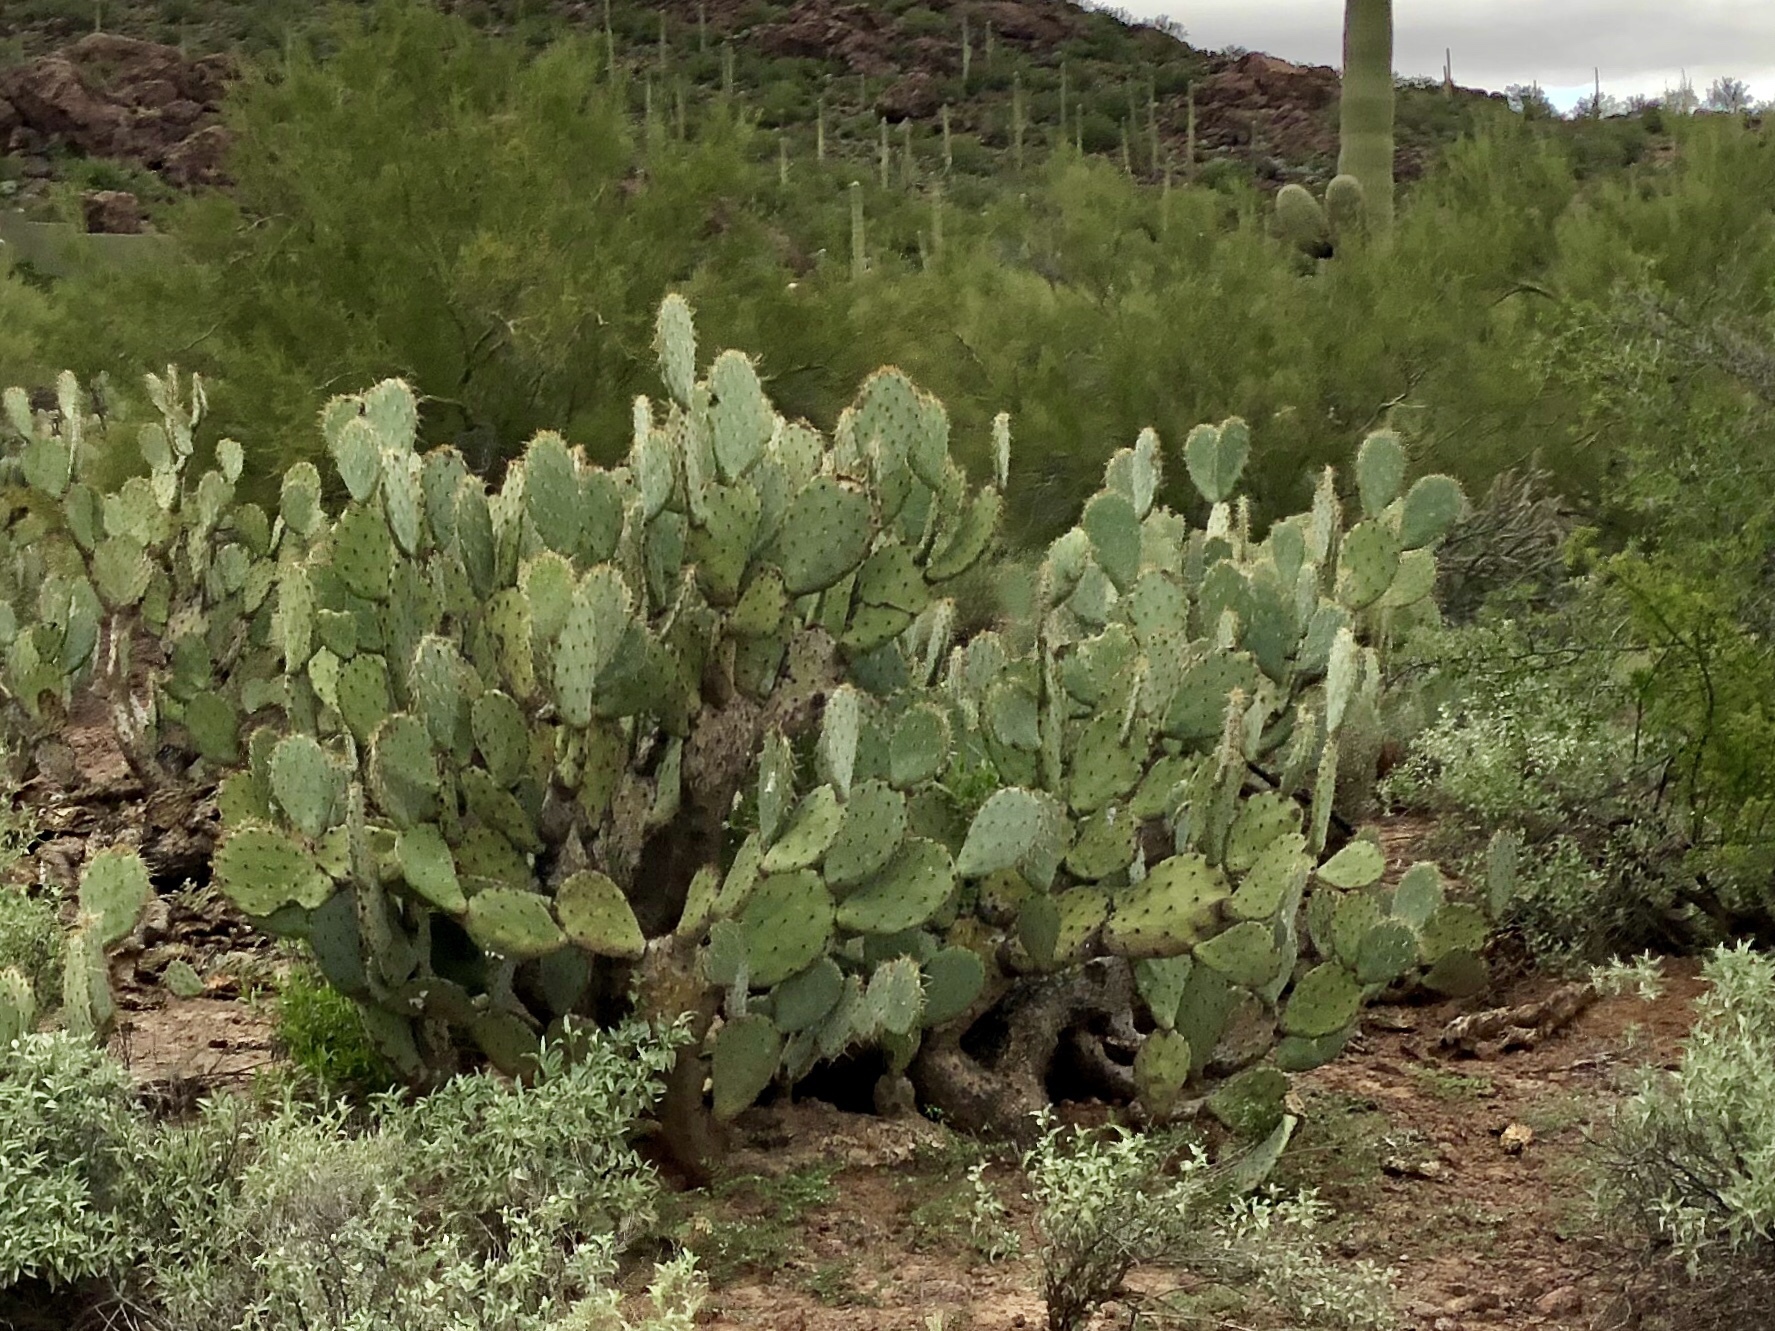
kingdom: Plantae
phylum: Tracheophyta
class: Magnoliopsida
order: Caryophyllales
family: Cactaceae
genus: Opuntia
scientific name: Opuntia engelmannii
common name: Cactus-apple
